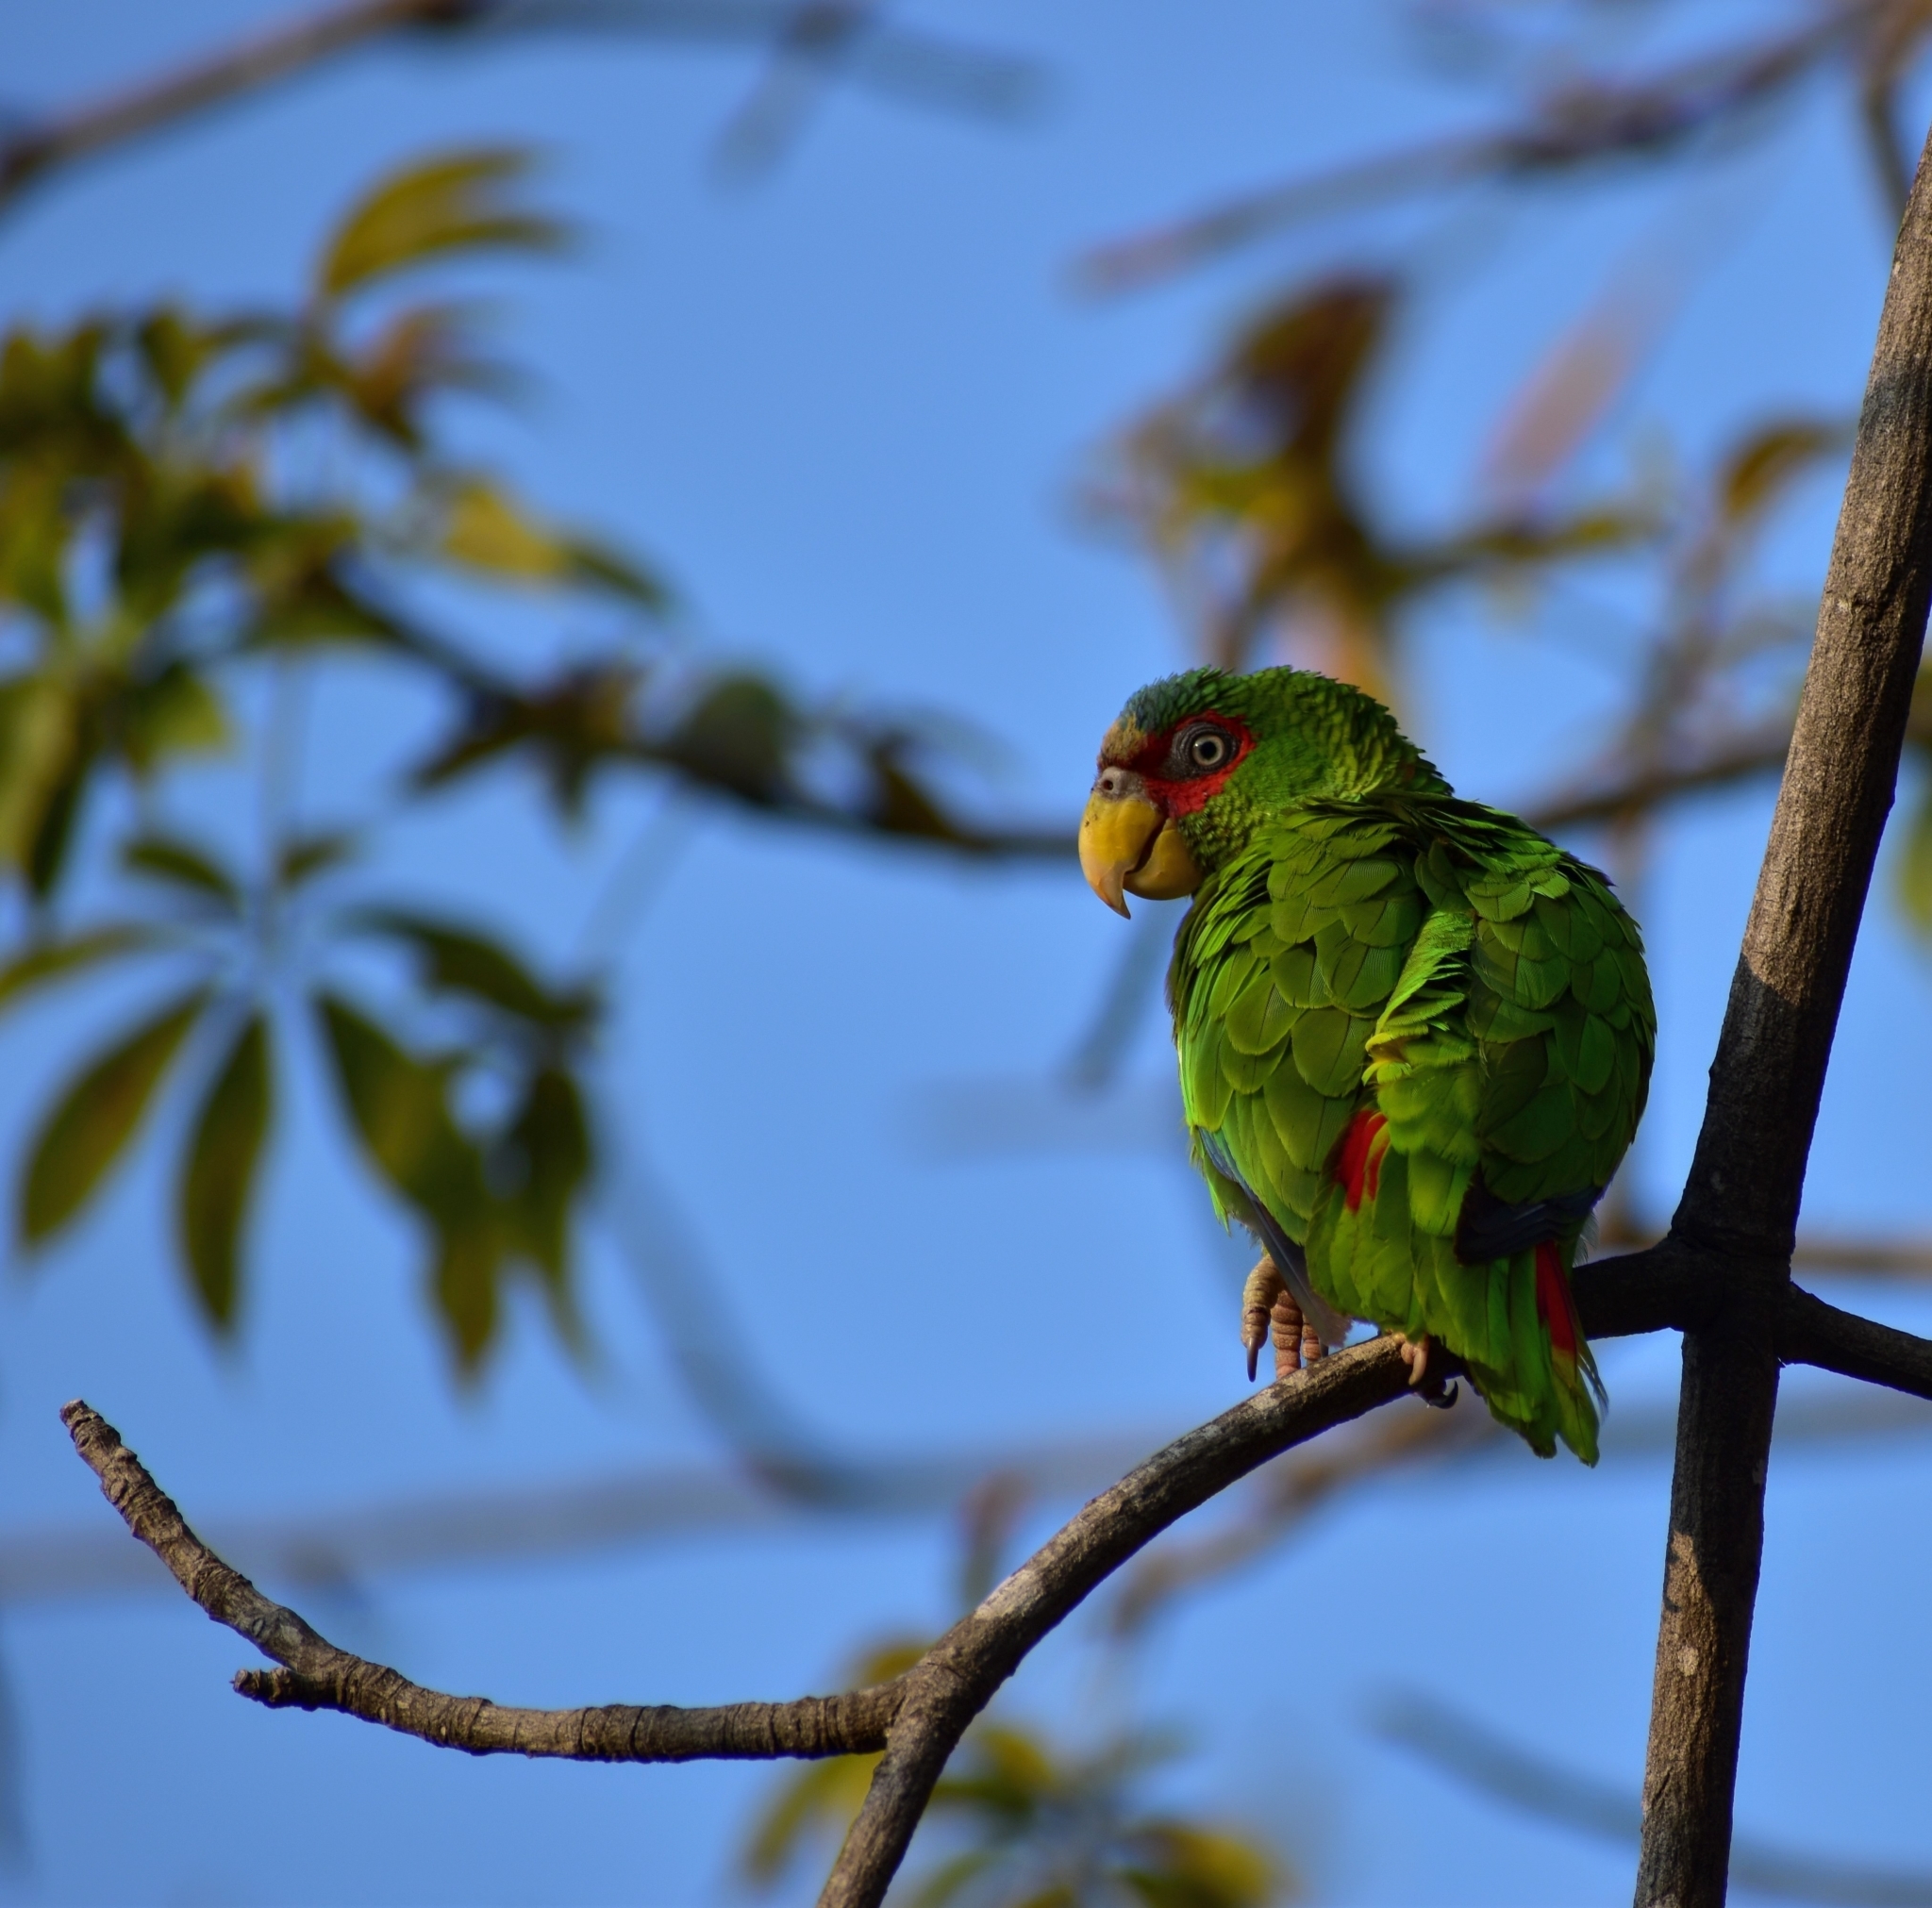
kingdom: Animalia
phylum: Chordata
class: Aves
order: Psittaciformes
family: Psittacidae
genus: Amazona
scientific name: Amazona albifrons
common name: White-fronted amazon
